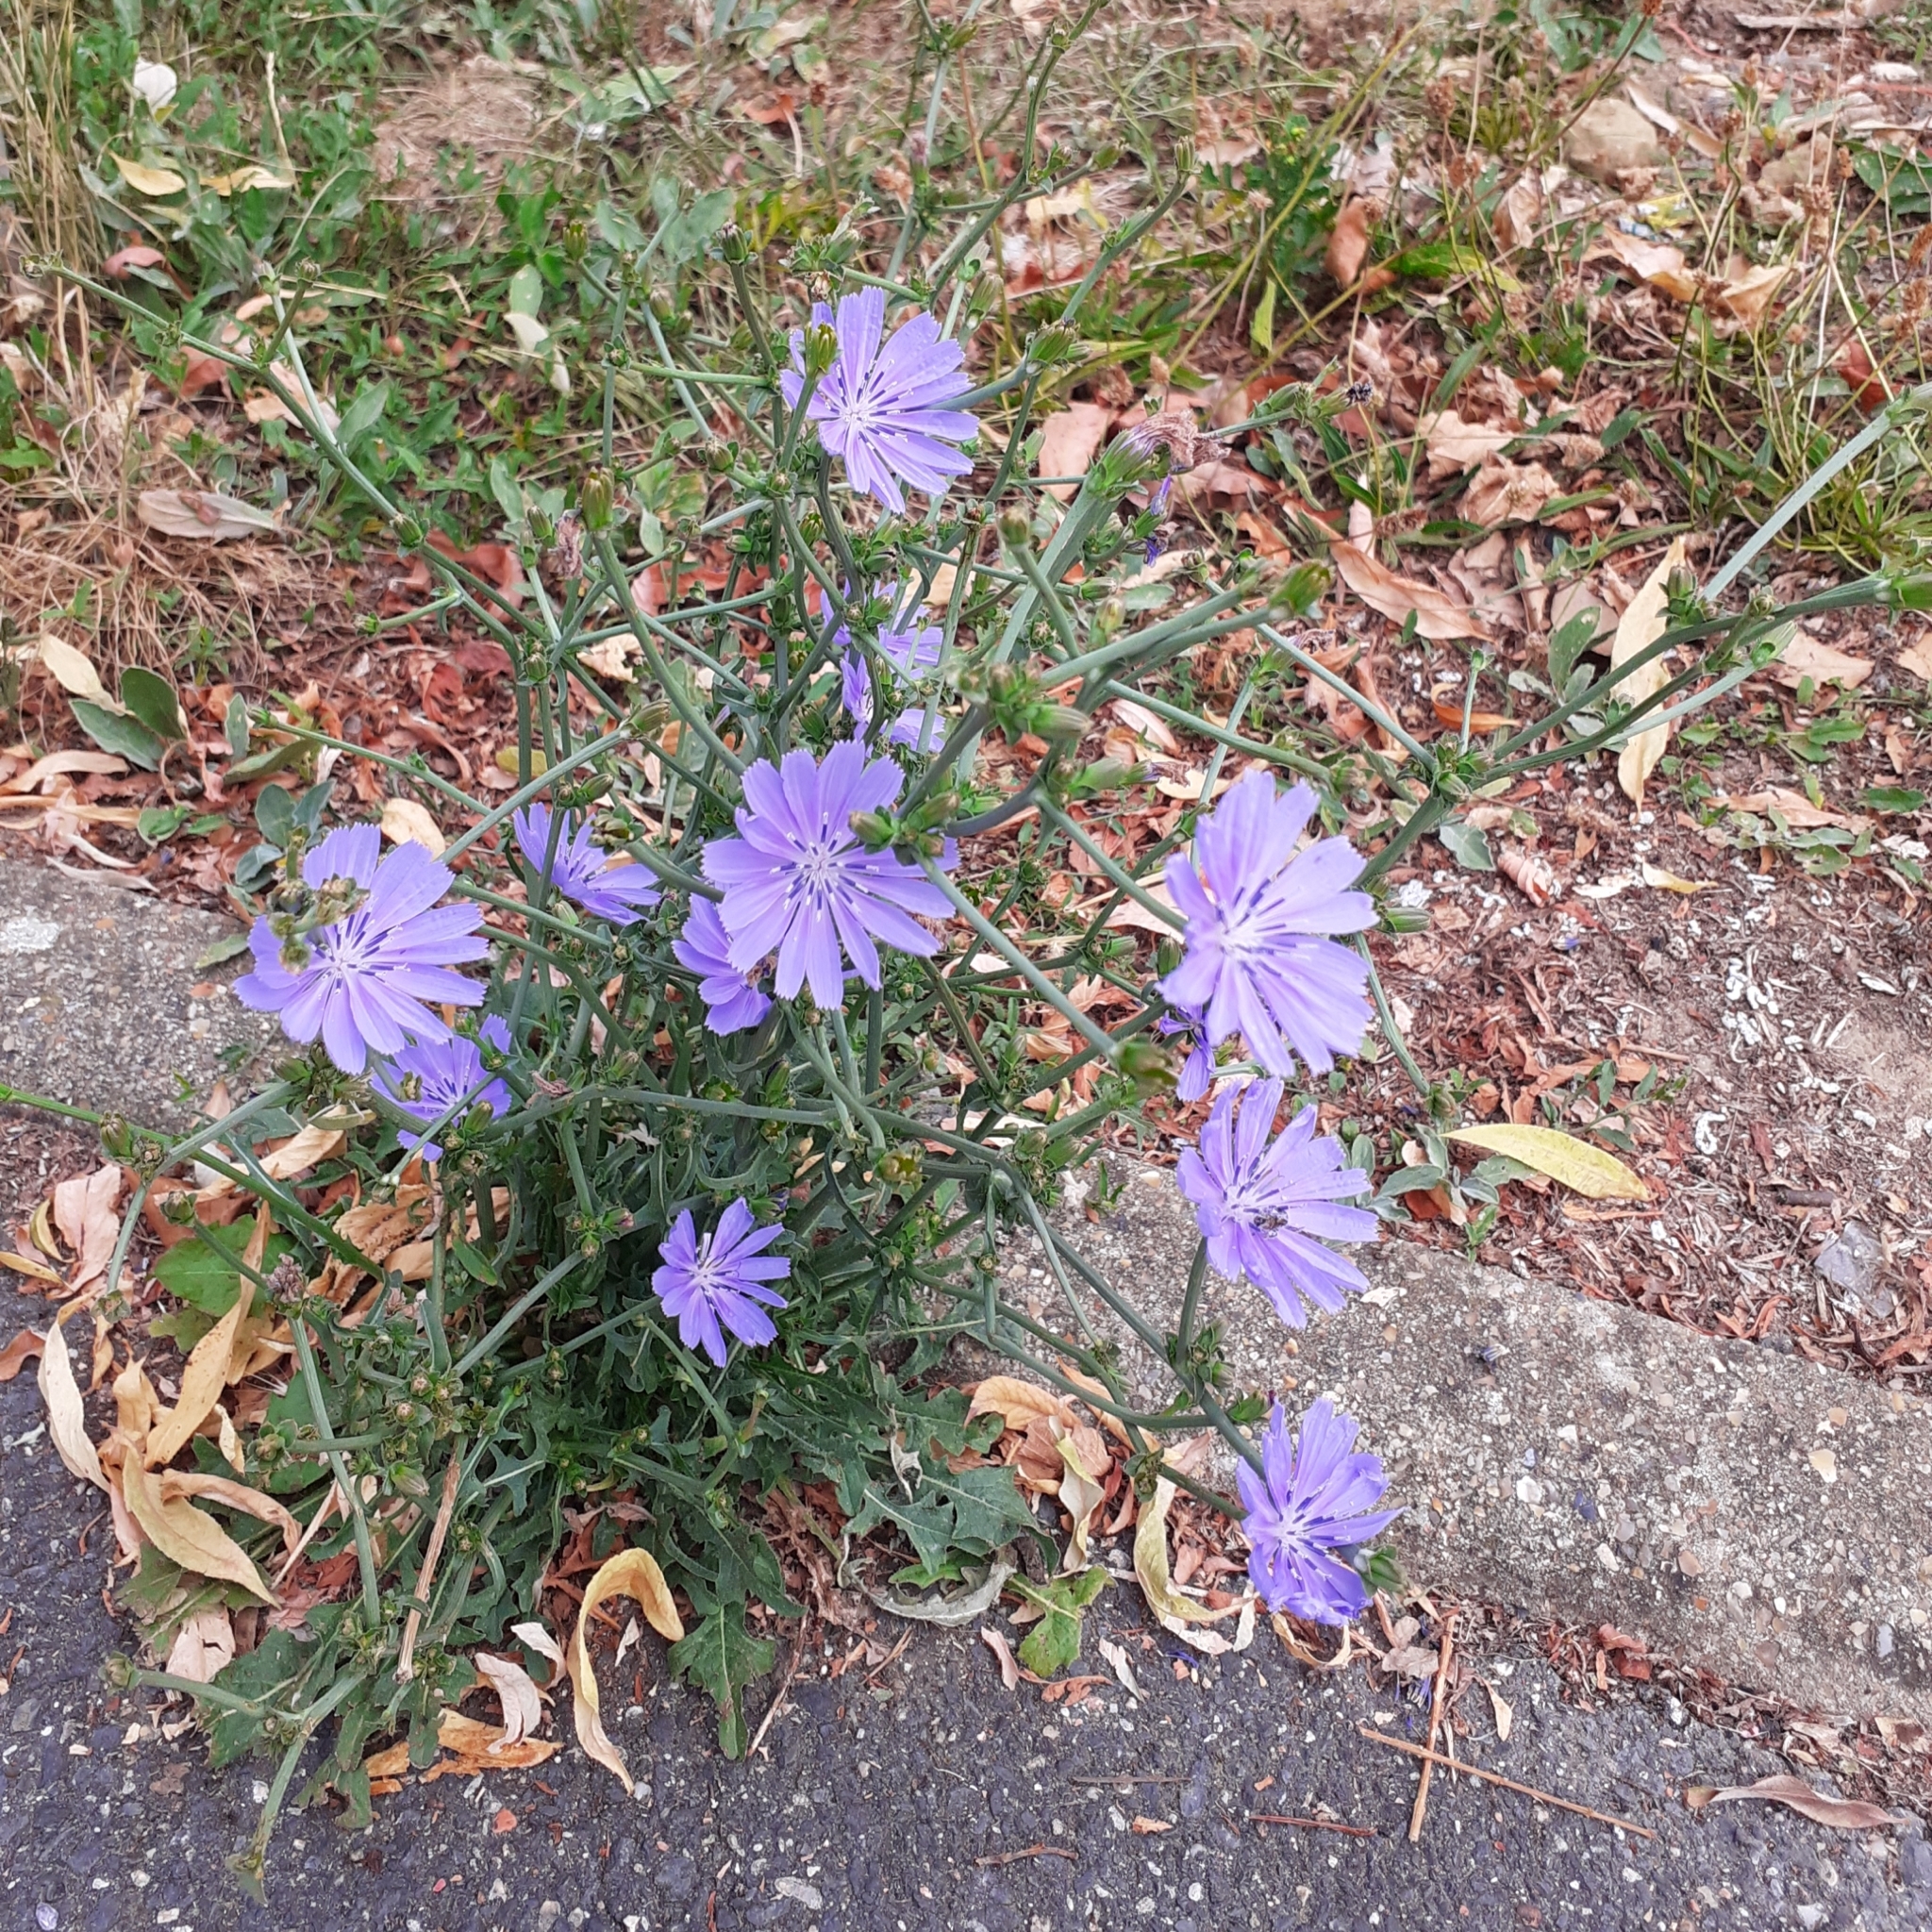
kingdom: Plantae
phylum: Tracheophyta
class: Magnoliopsida
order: Asterales
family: Asteraceae
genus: Cichorium
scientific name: Cichorium intybus
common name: Chicory
